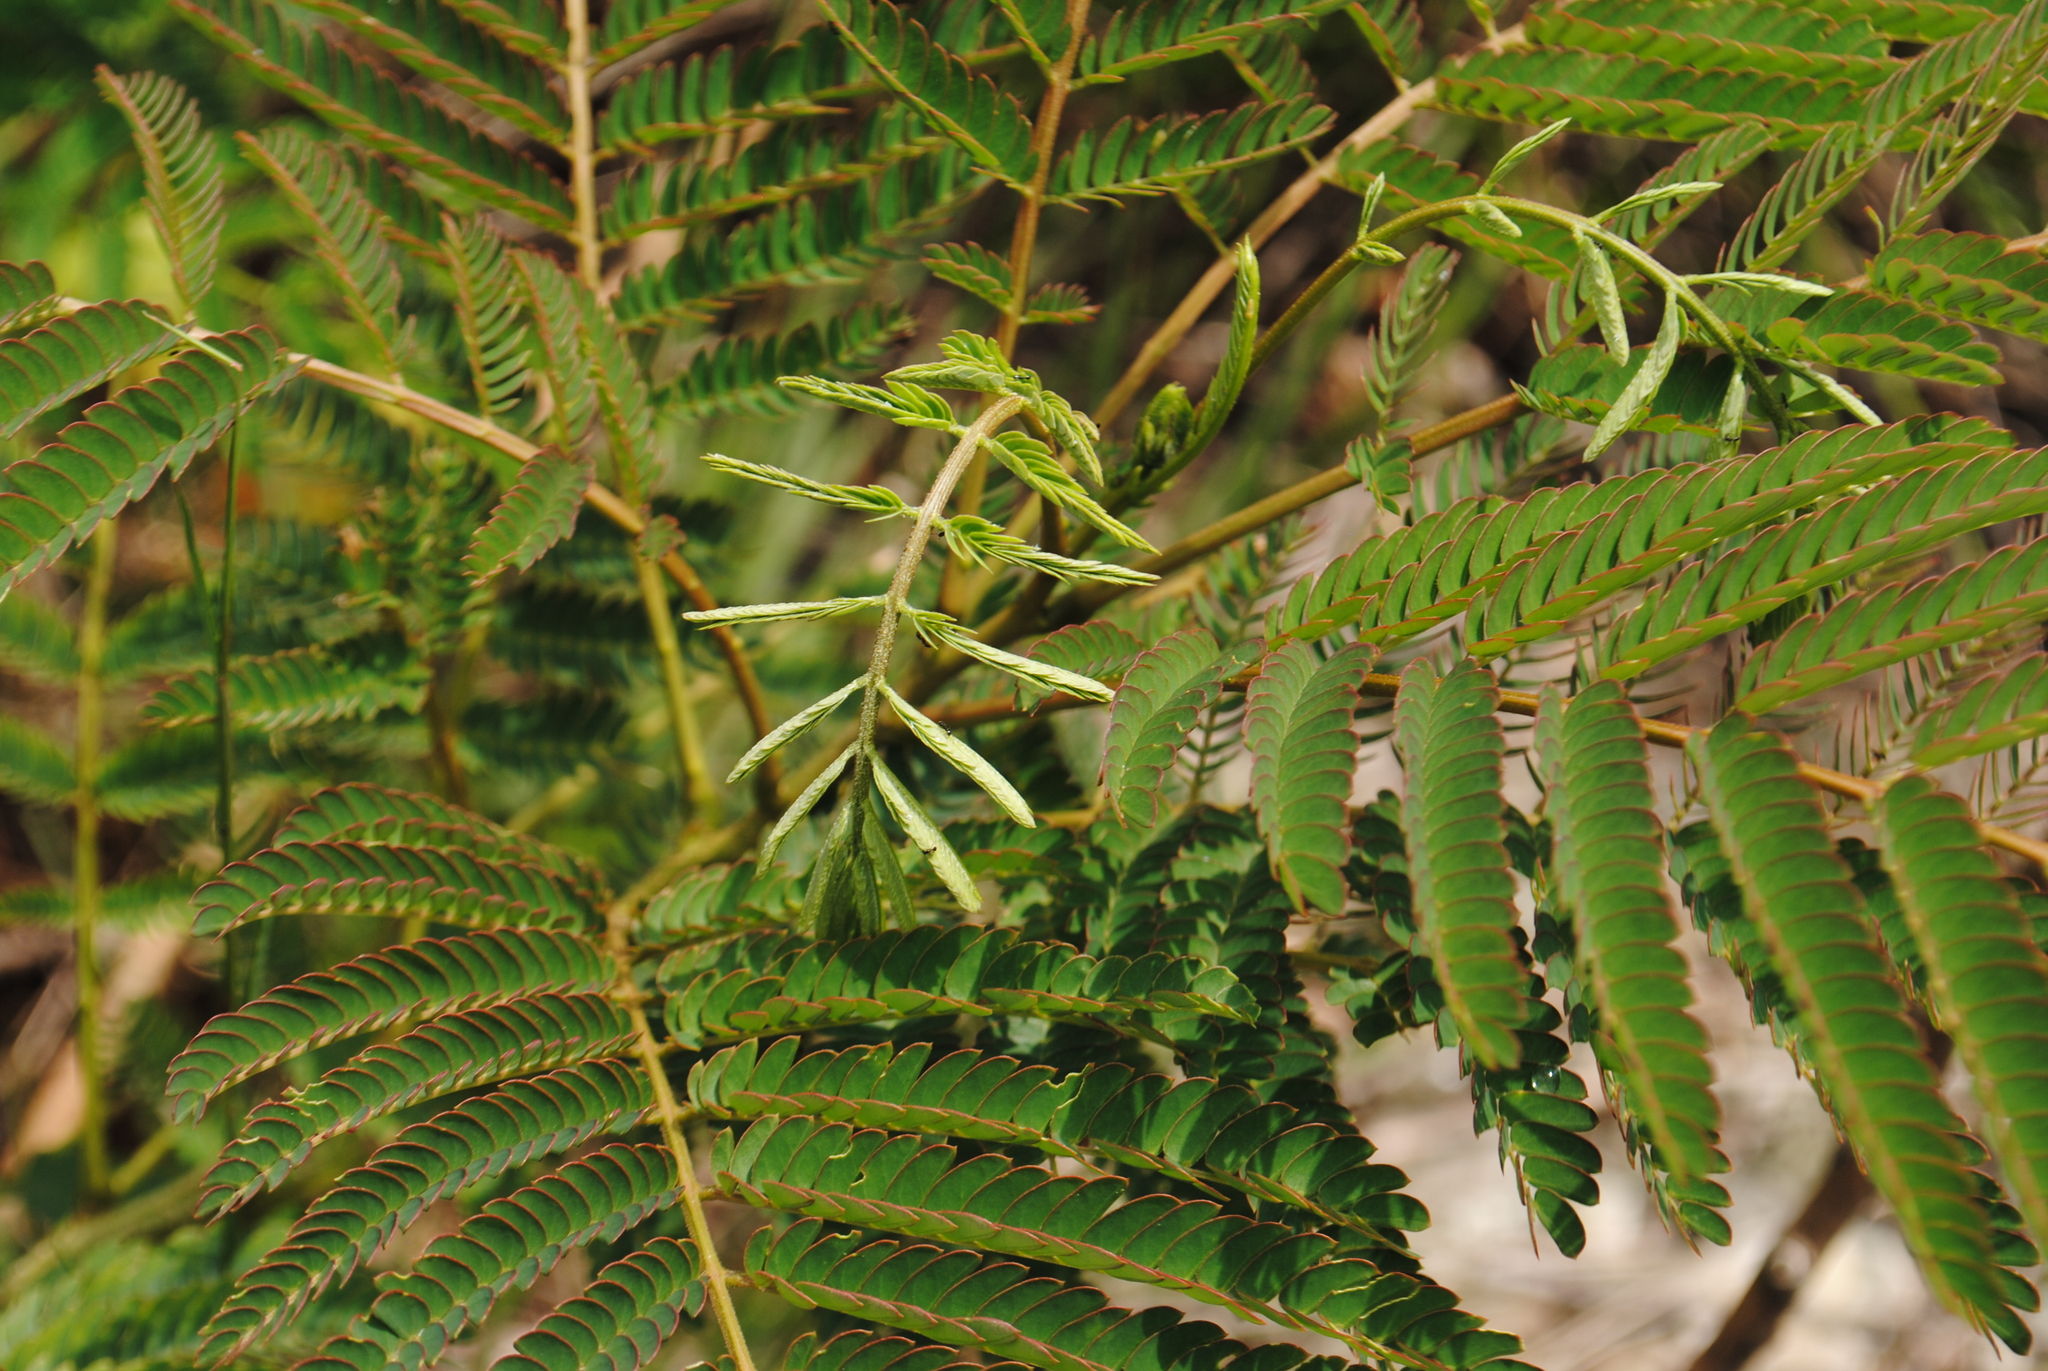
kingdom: Plantae
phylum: Tracheophyta
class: Magnoliopsida
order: Fabales
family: Fabaceae
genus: Albizia
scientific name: Albizia julibrissin
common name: Silktree
